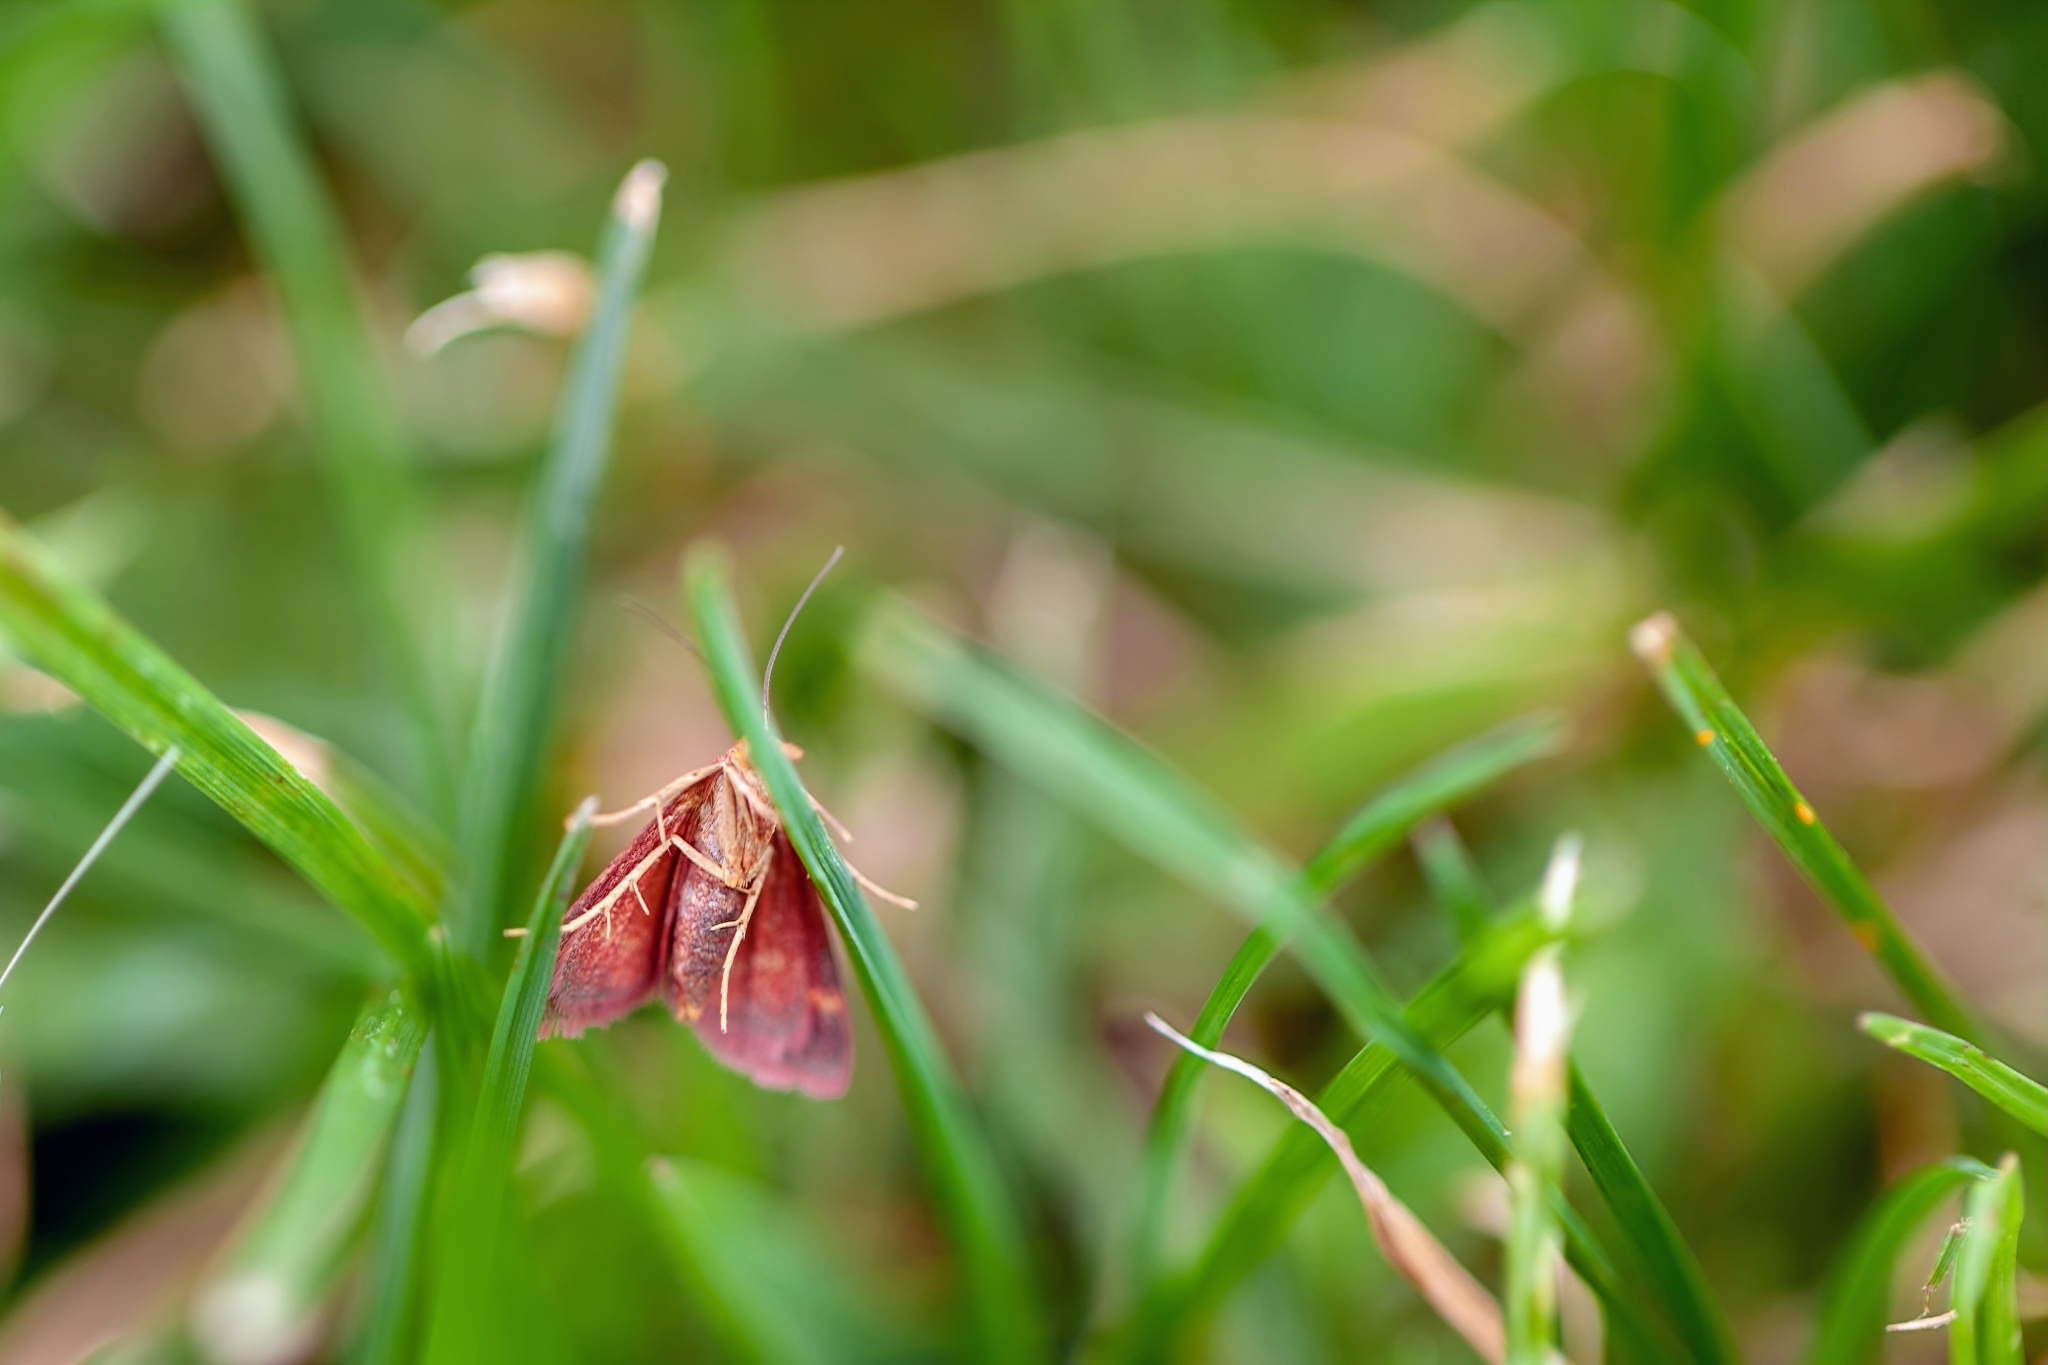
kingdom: Animalia
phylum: Arthropoda
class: Insecta
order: Lepidoptera
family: Crambidae
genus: Pyrausta
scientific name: Pyrausta tyralis
